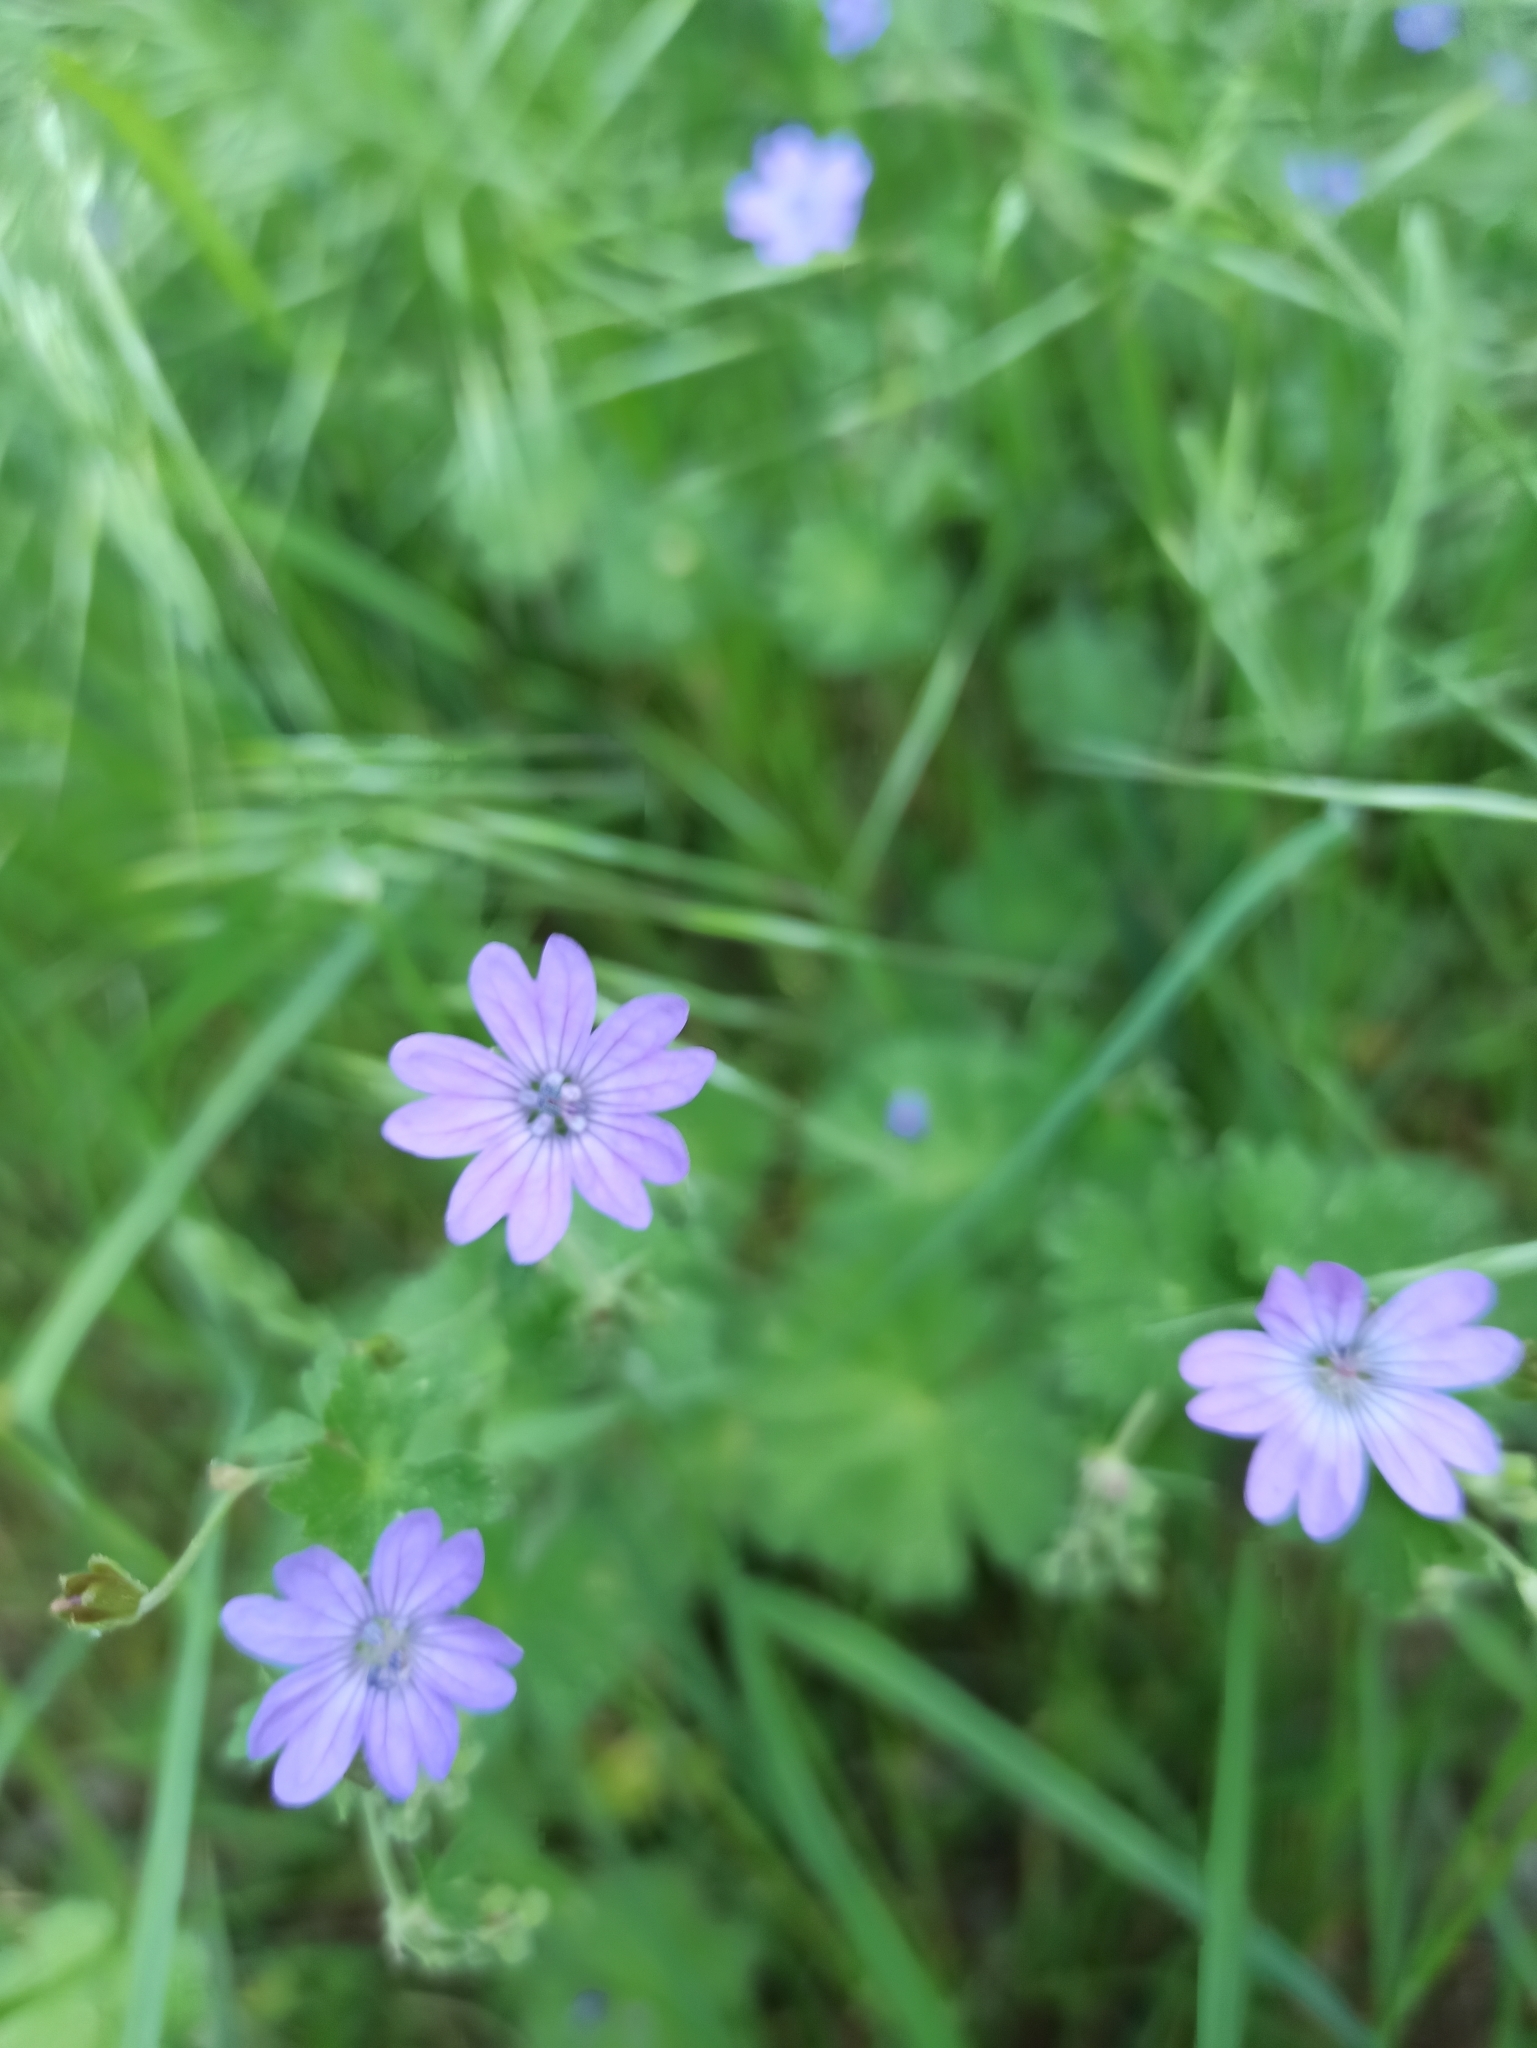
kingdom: Plantae
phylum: Tracheophyta
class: Magnoliopsida
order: Geraniales
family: Geraniaceae
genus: Geranium
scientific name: Geranium pyrenaicum
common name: Hedgerow crane's-bill
